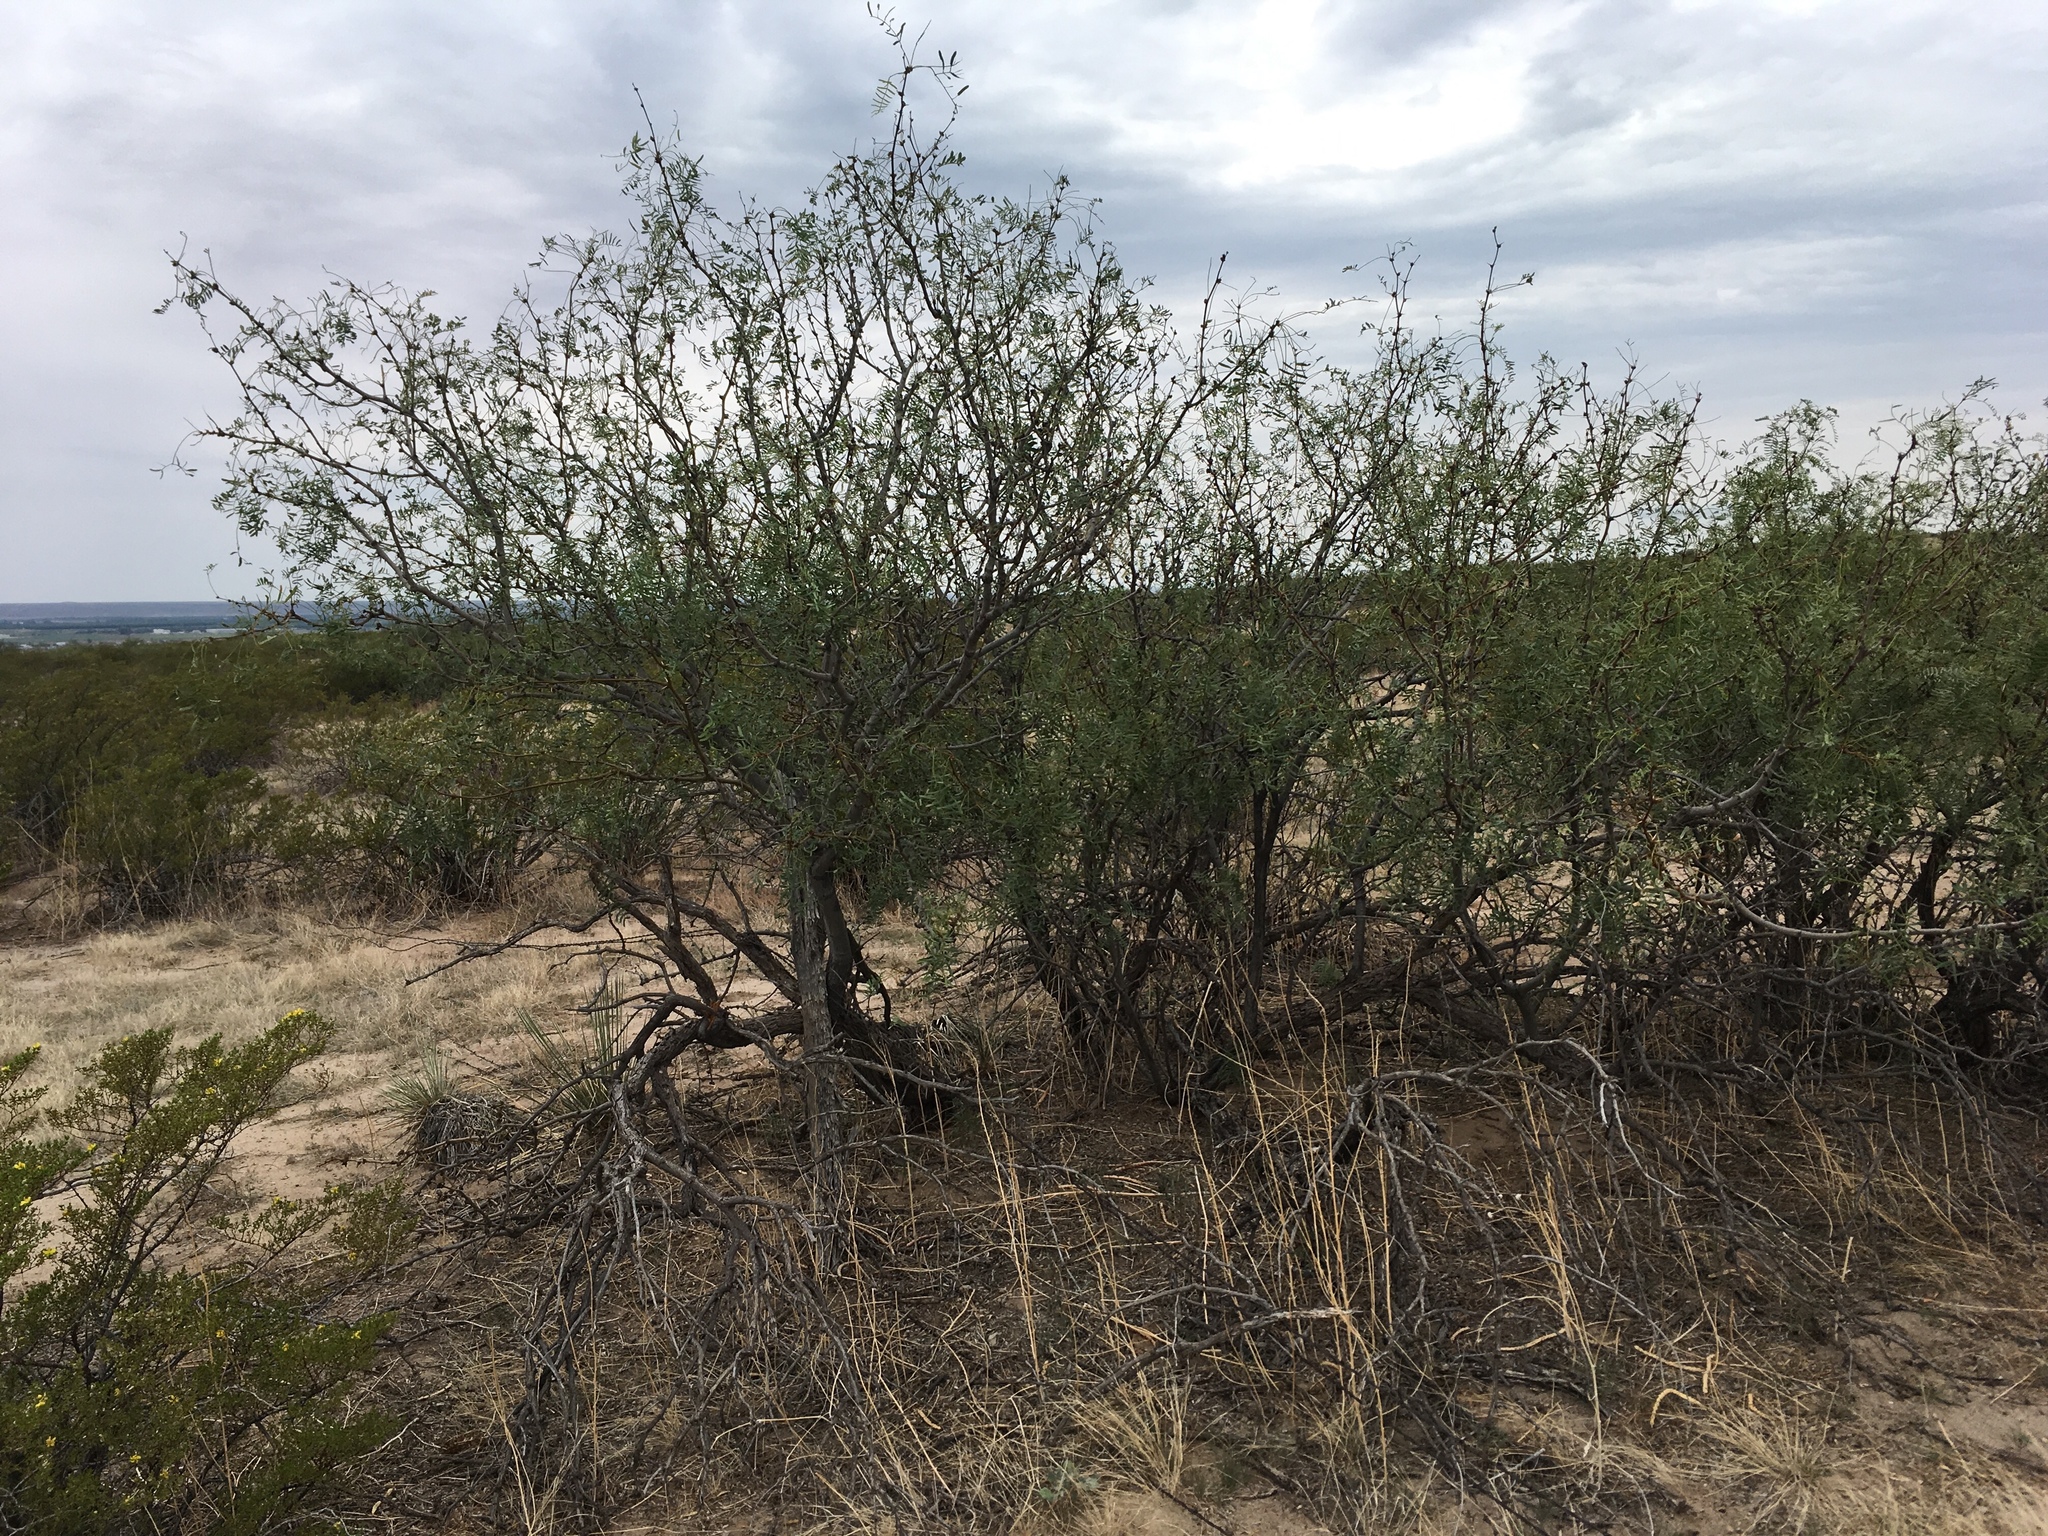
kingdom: Plantae
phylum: Tracheophyta
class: Magnoliopsida
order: Fabales
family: Fabaceae
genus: Prosopis
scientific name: Prosopis glandulosa
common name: Honey mesquite
